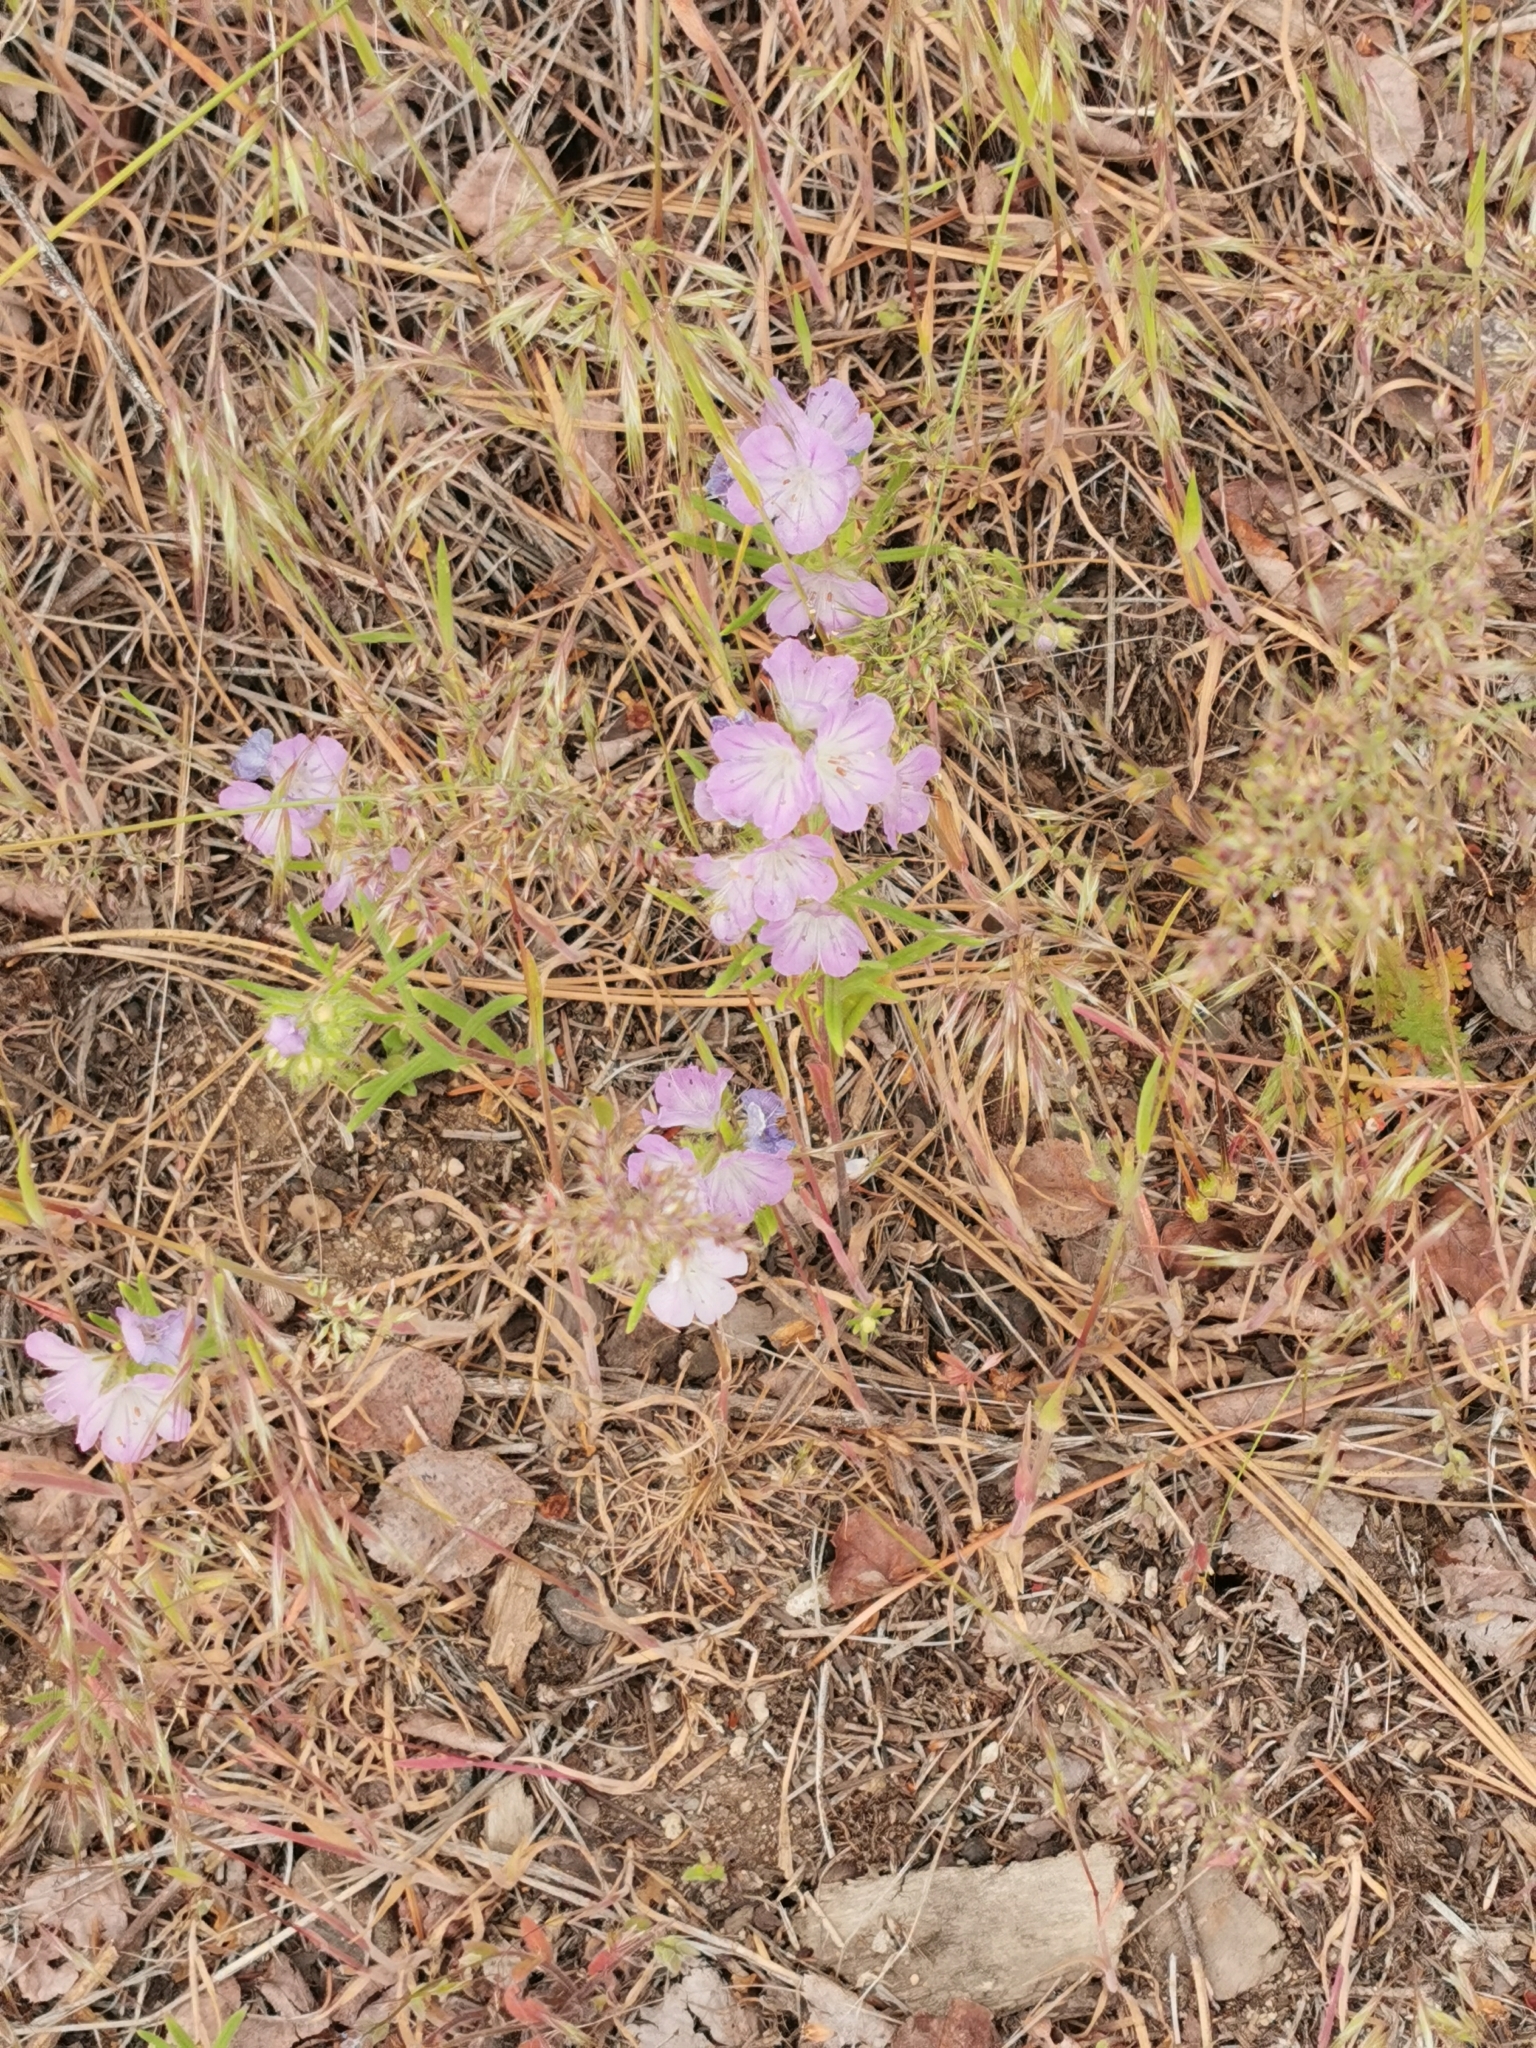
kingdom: Plantae
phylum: Tracheophyta
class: Magnoliopsida
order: Boraginales
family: Hydrophyllaceae
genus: Phacelia
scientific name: Phacelia linearis
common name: Linear-leaved phacelia
